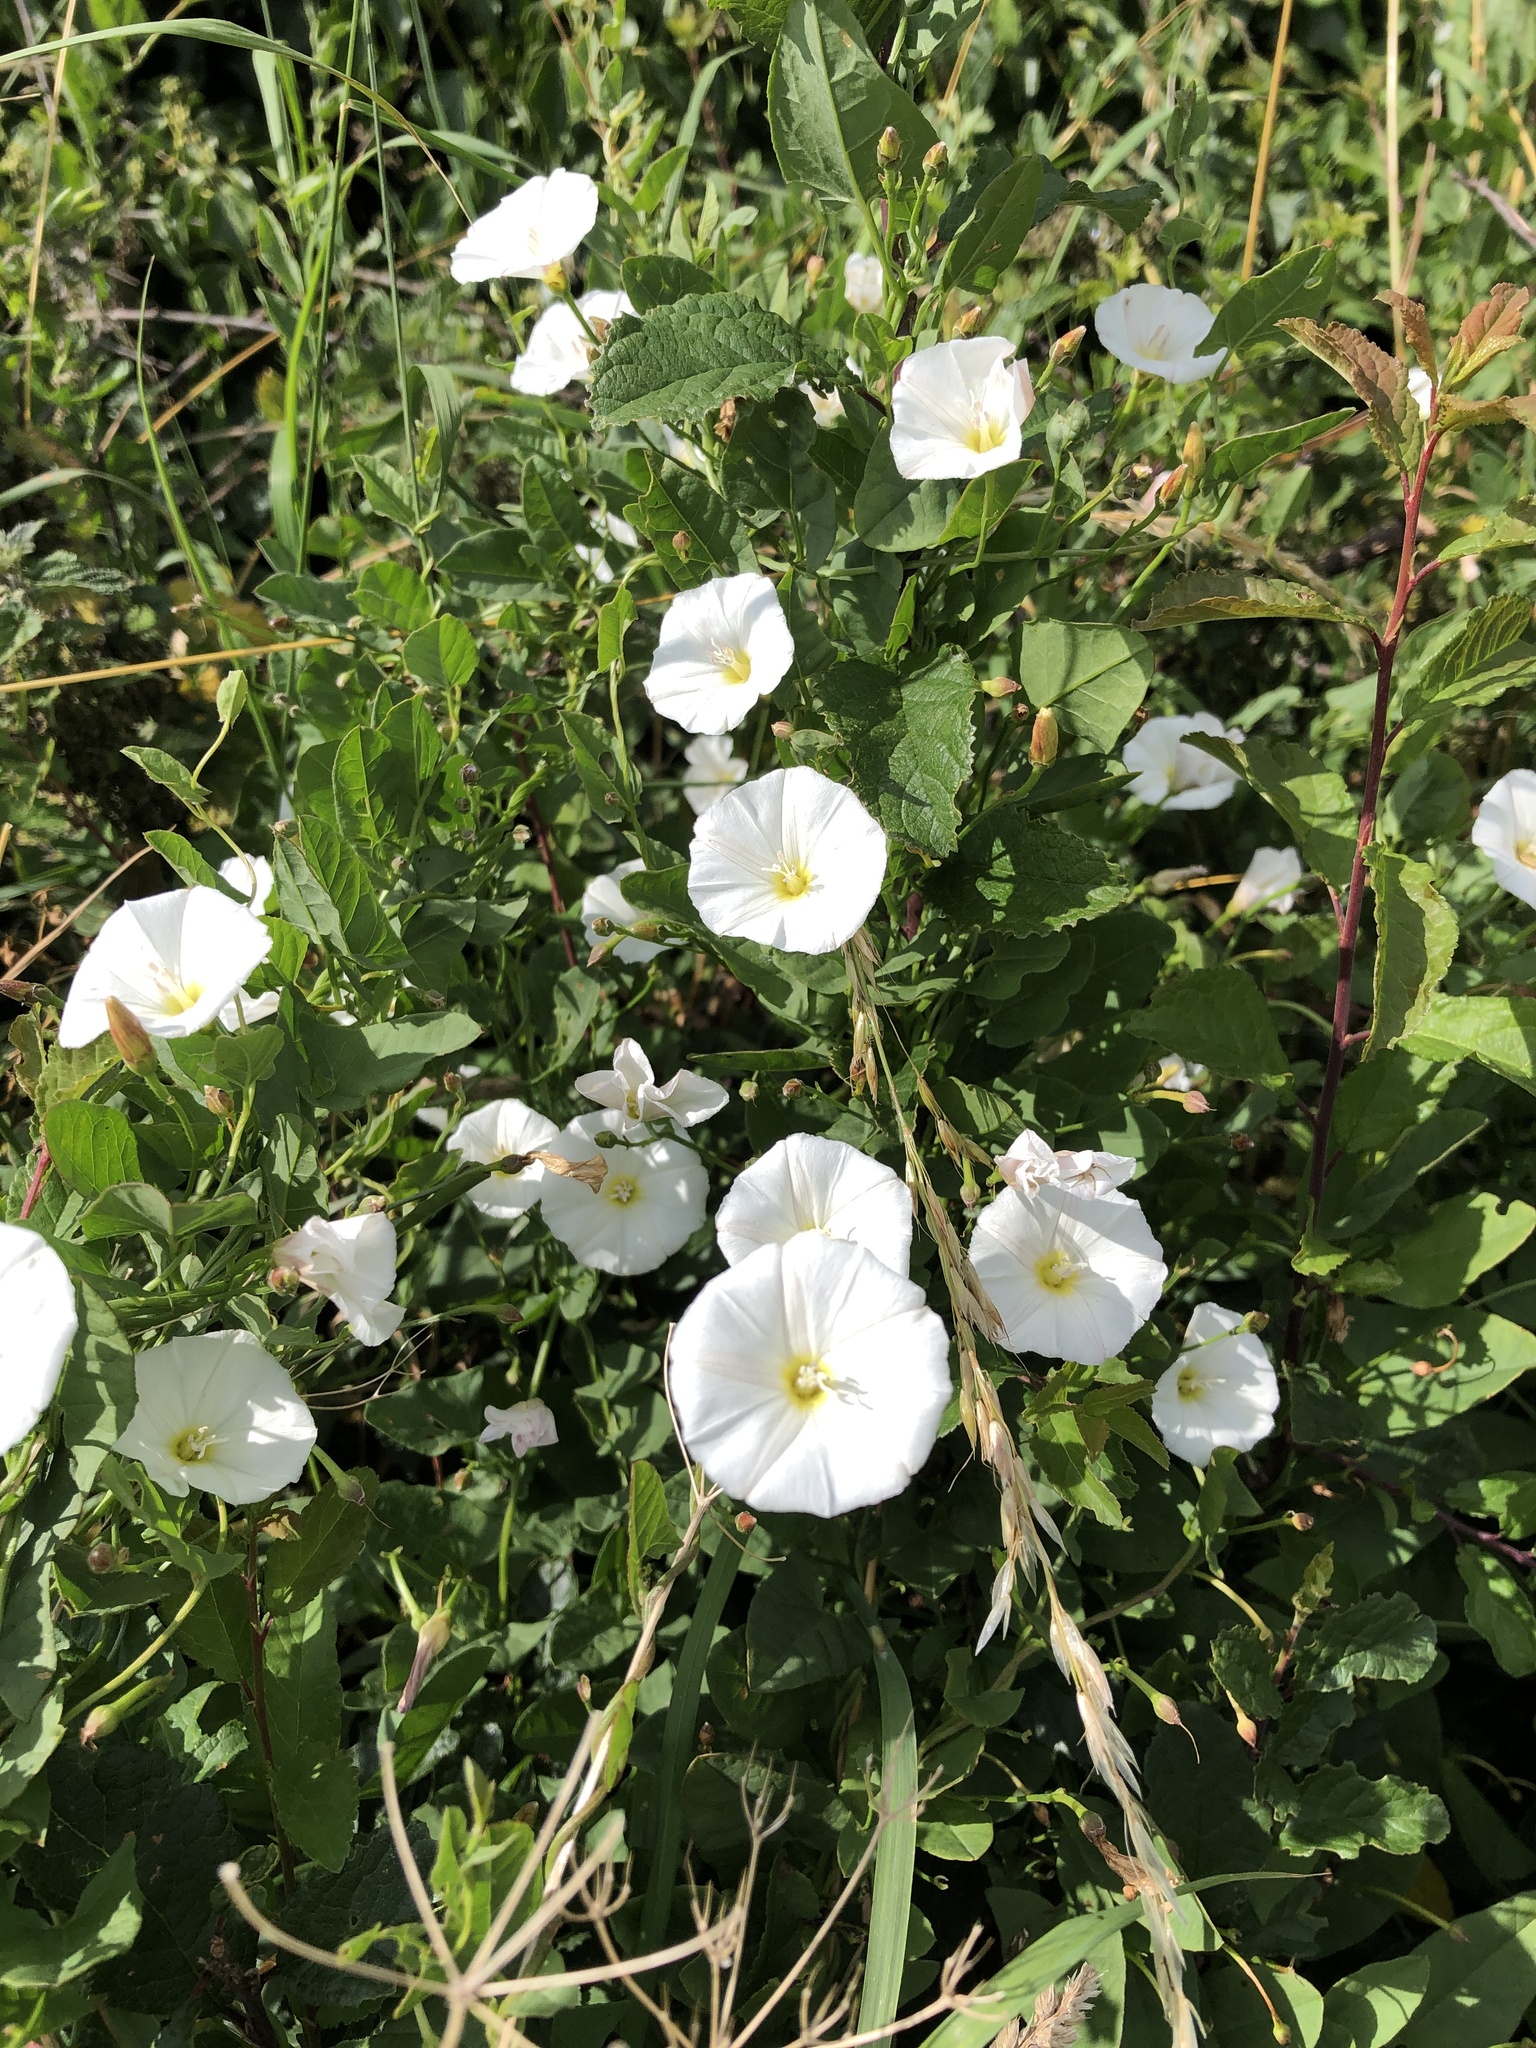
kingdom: Plantae
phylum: Tracheophyta
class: Magnoliopsida
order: Solanales
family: Convolvulaceae
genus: Convolvulus
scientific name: Convolvulus arvensis
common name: Field bindweed
